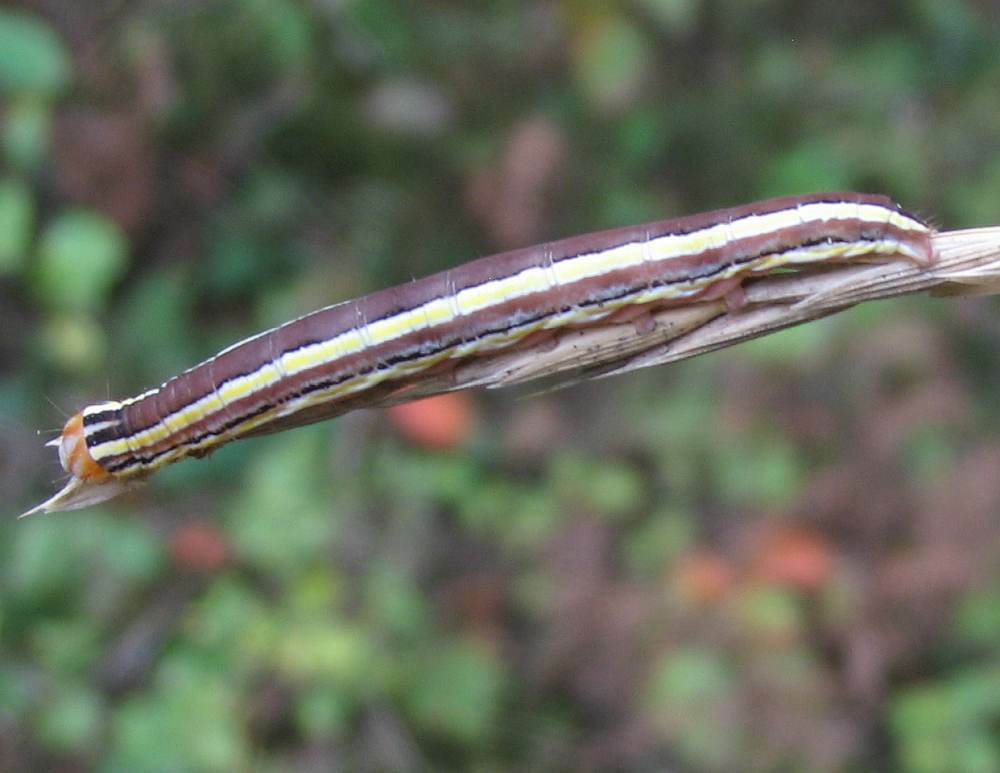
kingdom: Animalia
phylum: Arthropoda
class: Insecta
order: Lepidoptera
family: Noctuidae
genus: Trichordestra
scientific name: Trichordestra legitima
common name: Striped garden caterpillar
